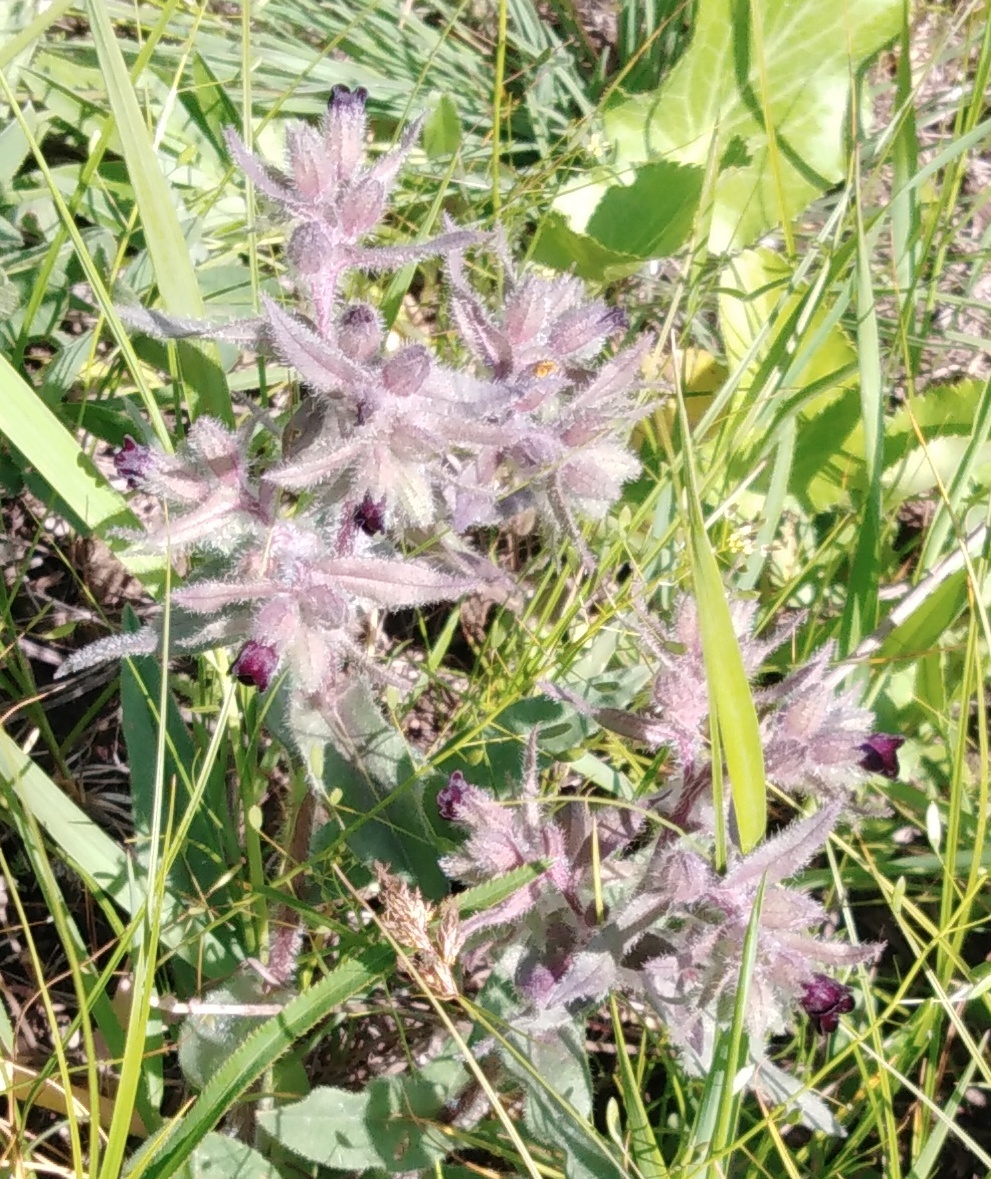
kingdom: Plantae
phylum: Tracheophyta
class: Magnoliopsida
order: Boraginales
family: Boraginaceae
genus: Nonea
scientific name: Nonea pulla
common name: Brown nonea
